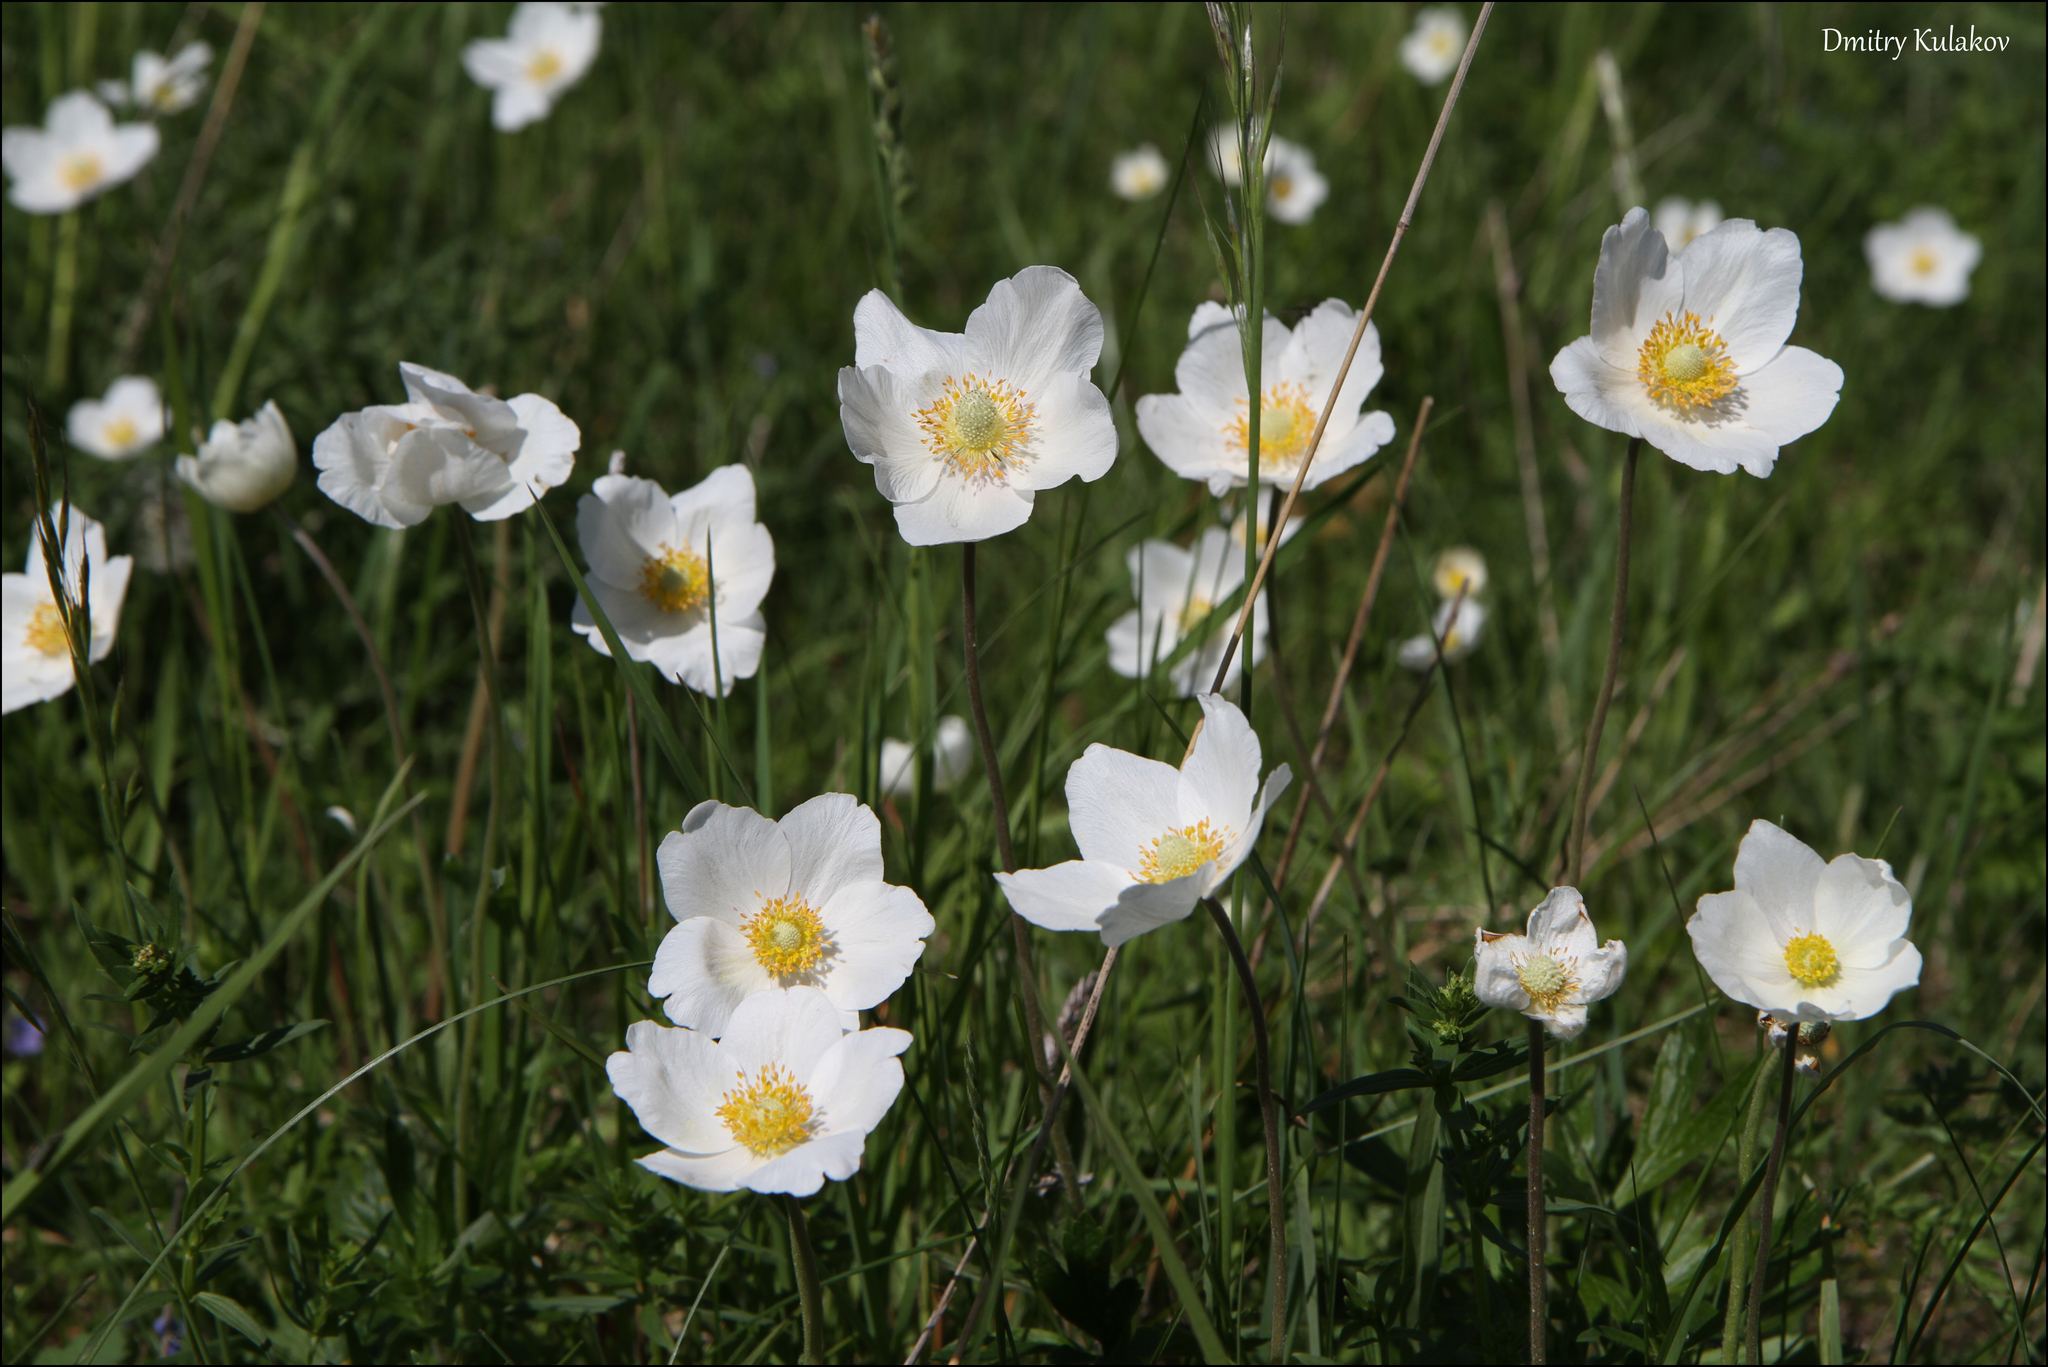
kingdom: Plantae
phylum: Tracheophyta
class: Magnoliopsida
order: Ranunculales
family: Ranunculaceae
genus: Anemone
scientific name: Anemone sylvestris
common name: Snowdrop anemone
